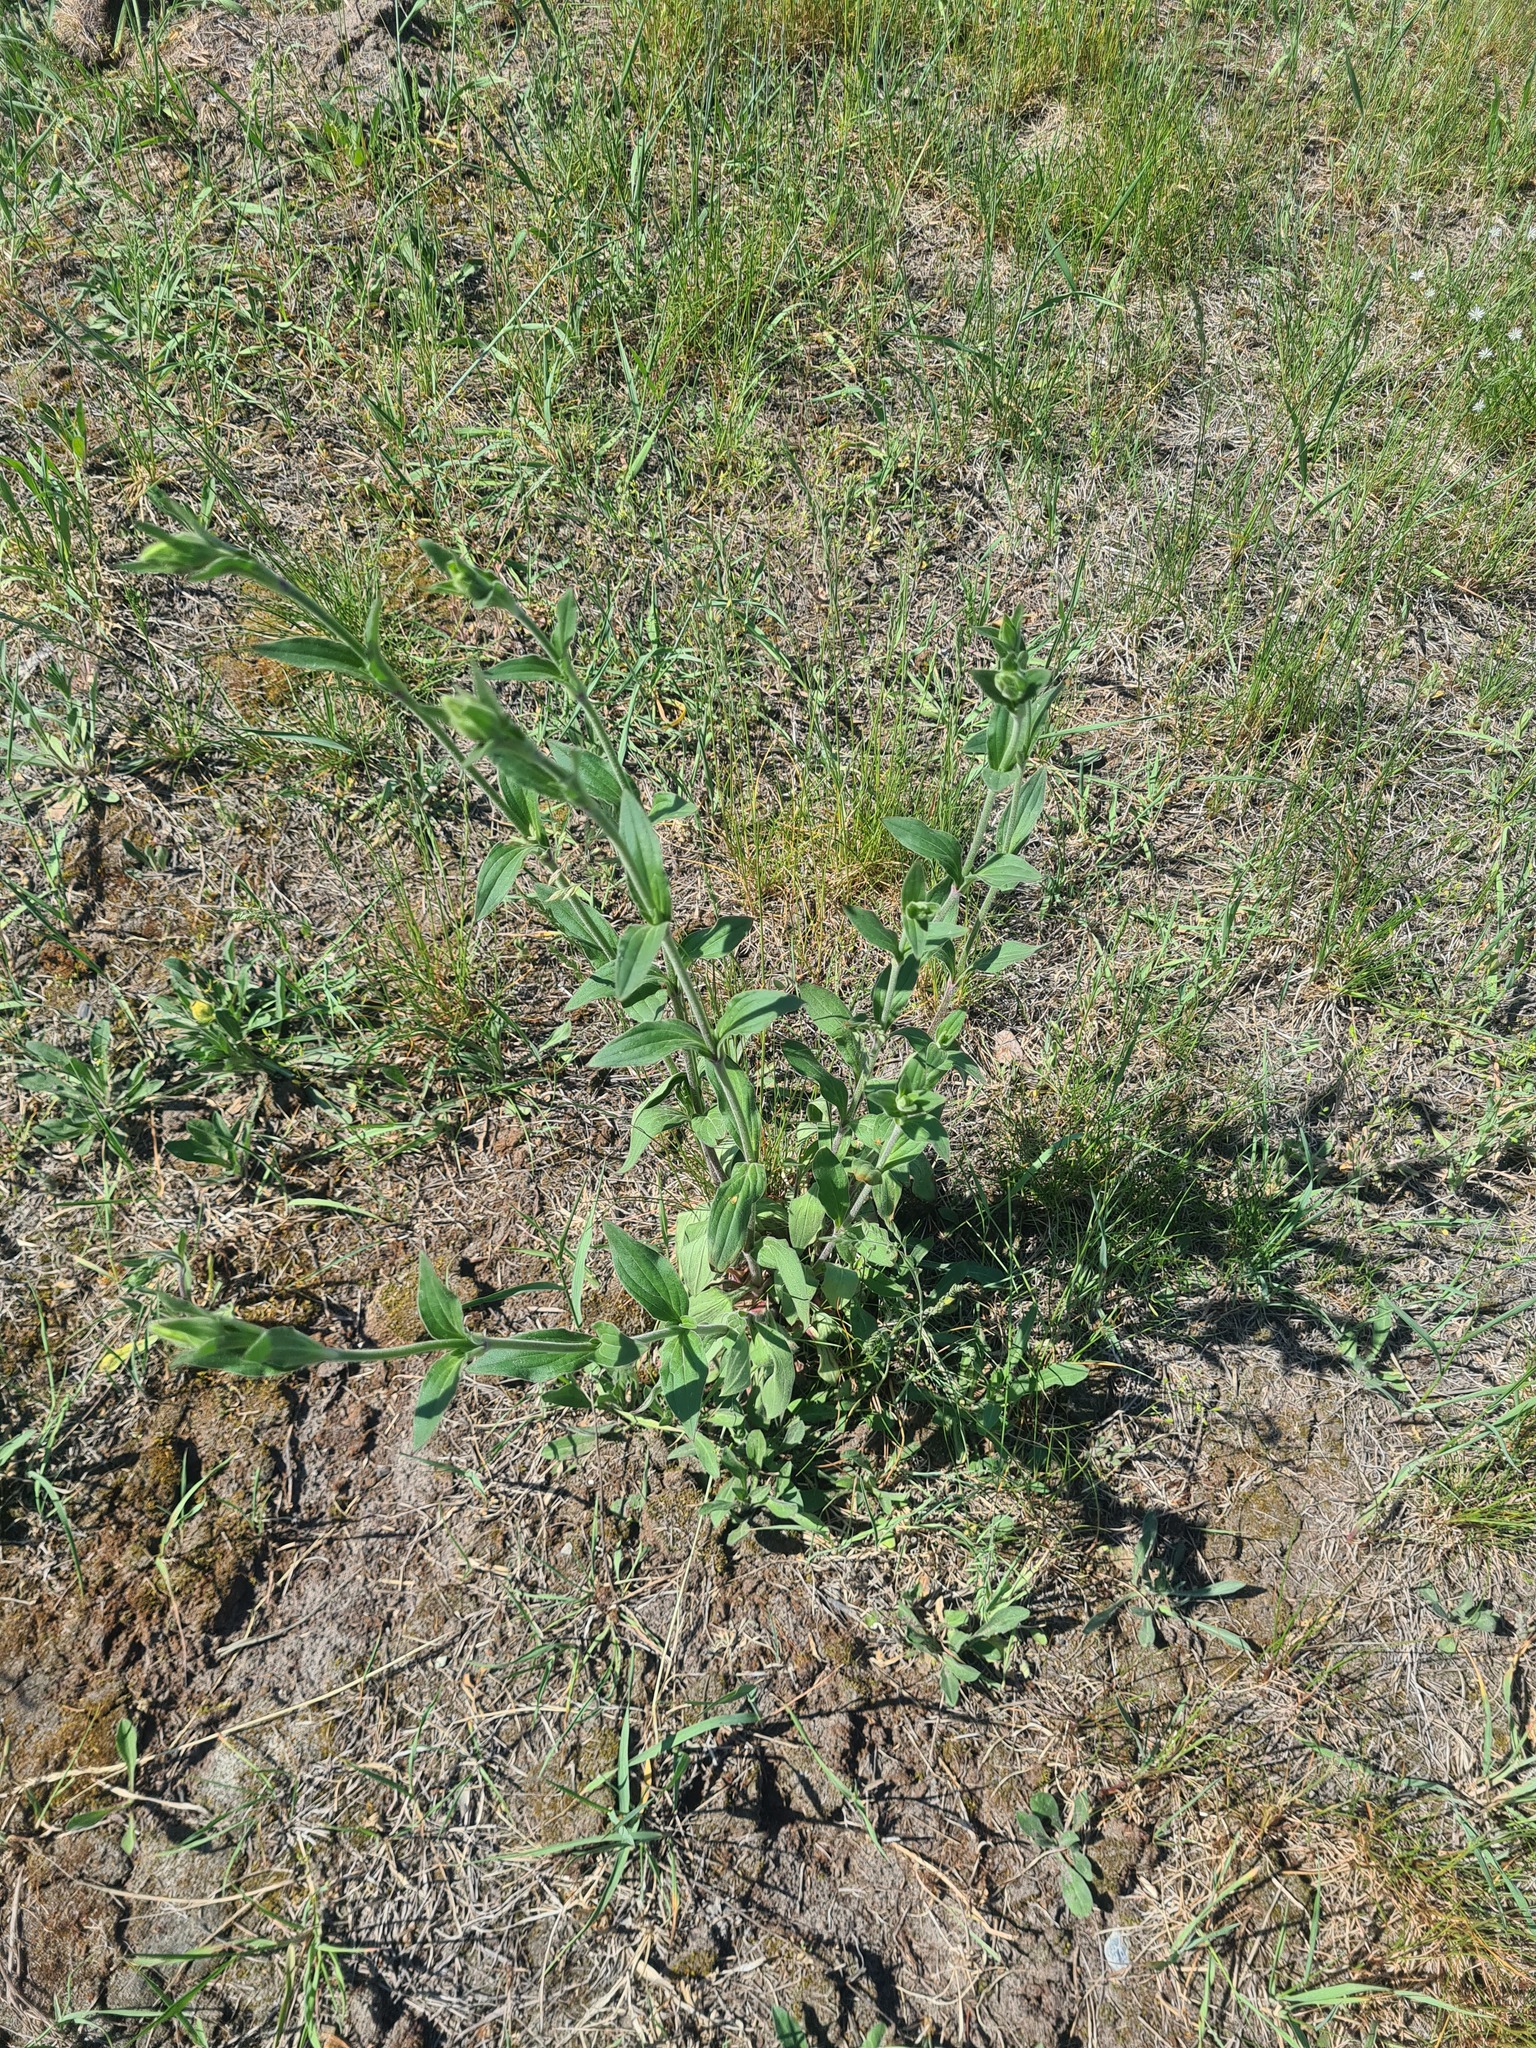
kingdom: Plantae
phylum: Tracheophyta
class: Magnoliopsida
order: Caryophyllales
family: Caryophyllaceae
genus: Silene
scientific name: Silene latifolia
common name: White campion
